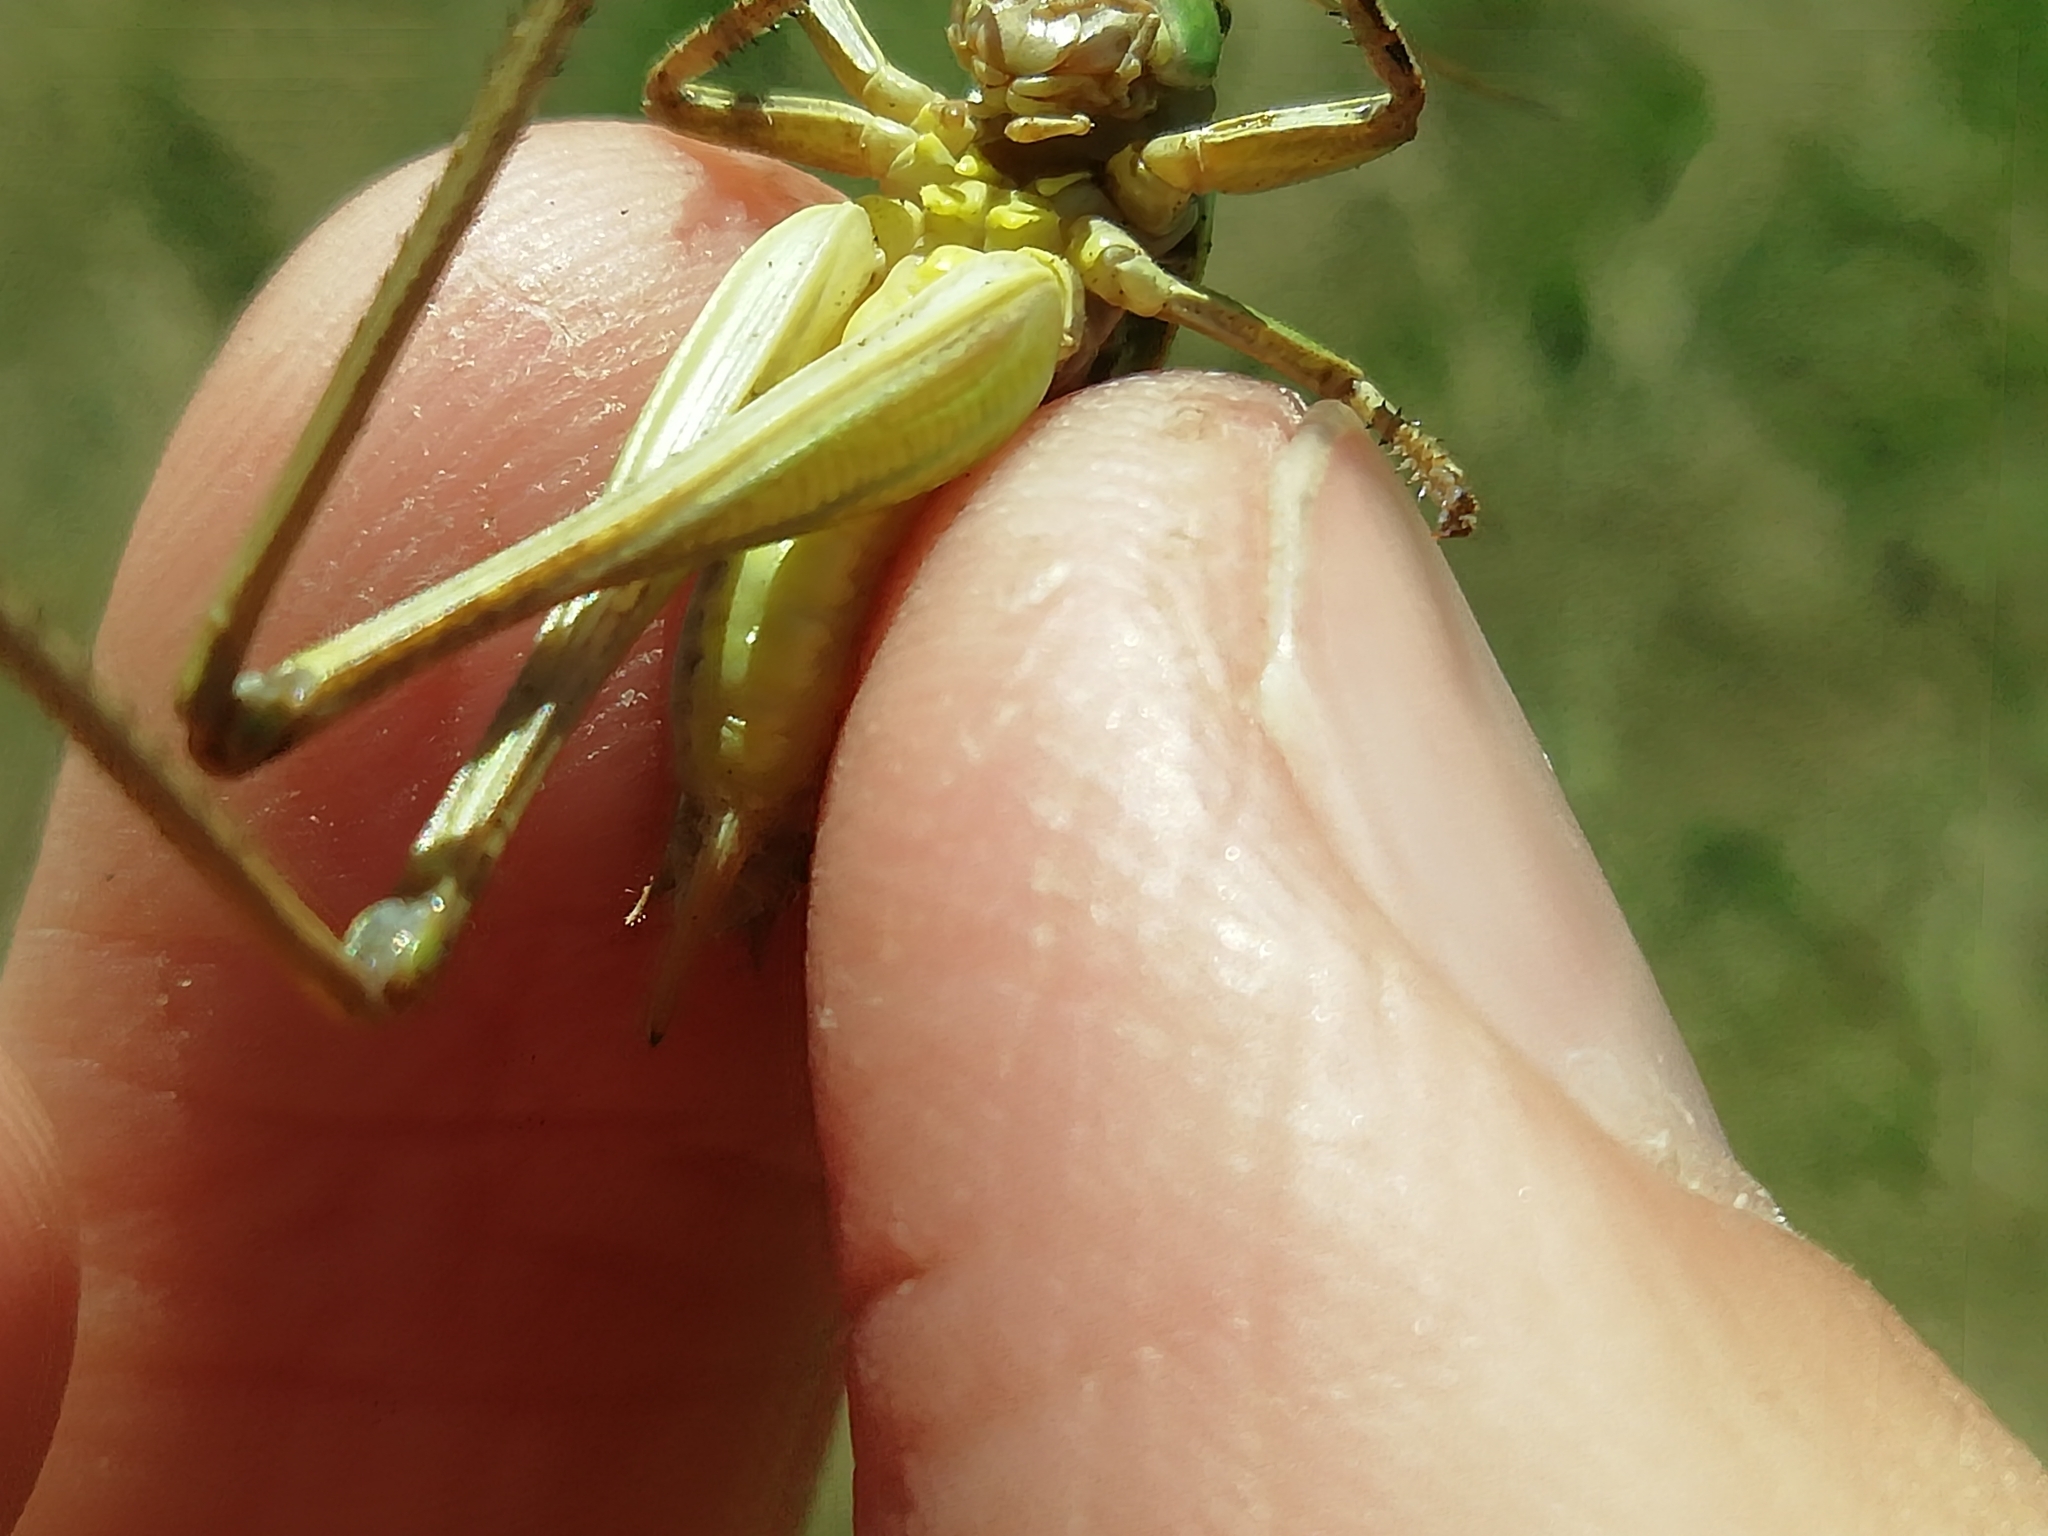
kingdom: Animalia
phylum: Arthropoda
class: Insecta
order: Orthoptera
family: Tettigoniidae
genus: Decticus
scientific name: Decticus verrucivorus
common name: Wart-biter
